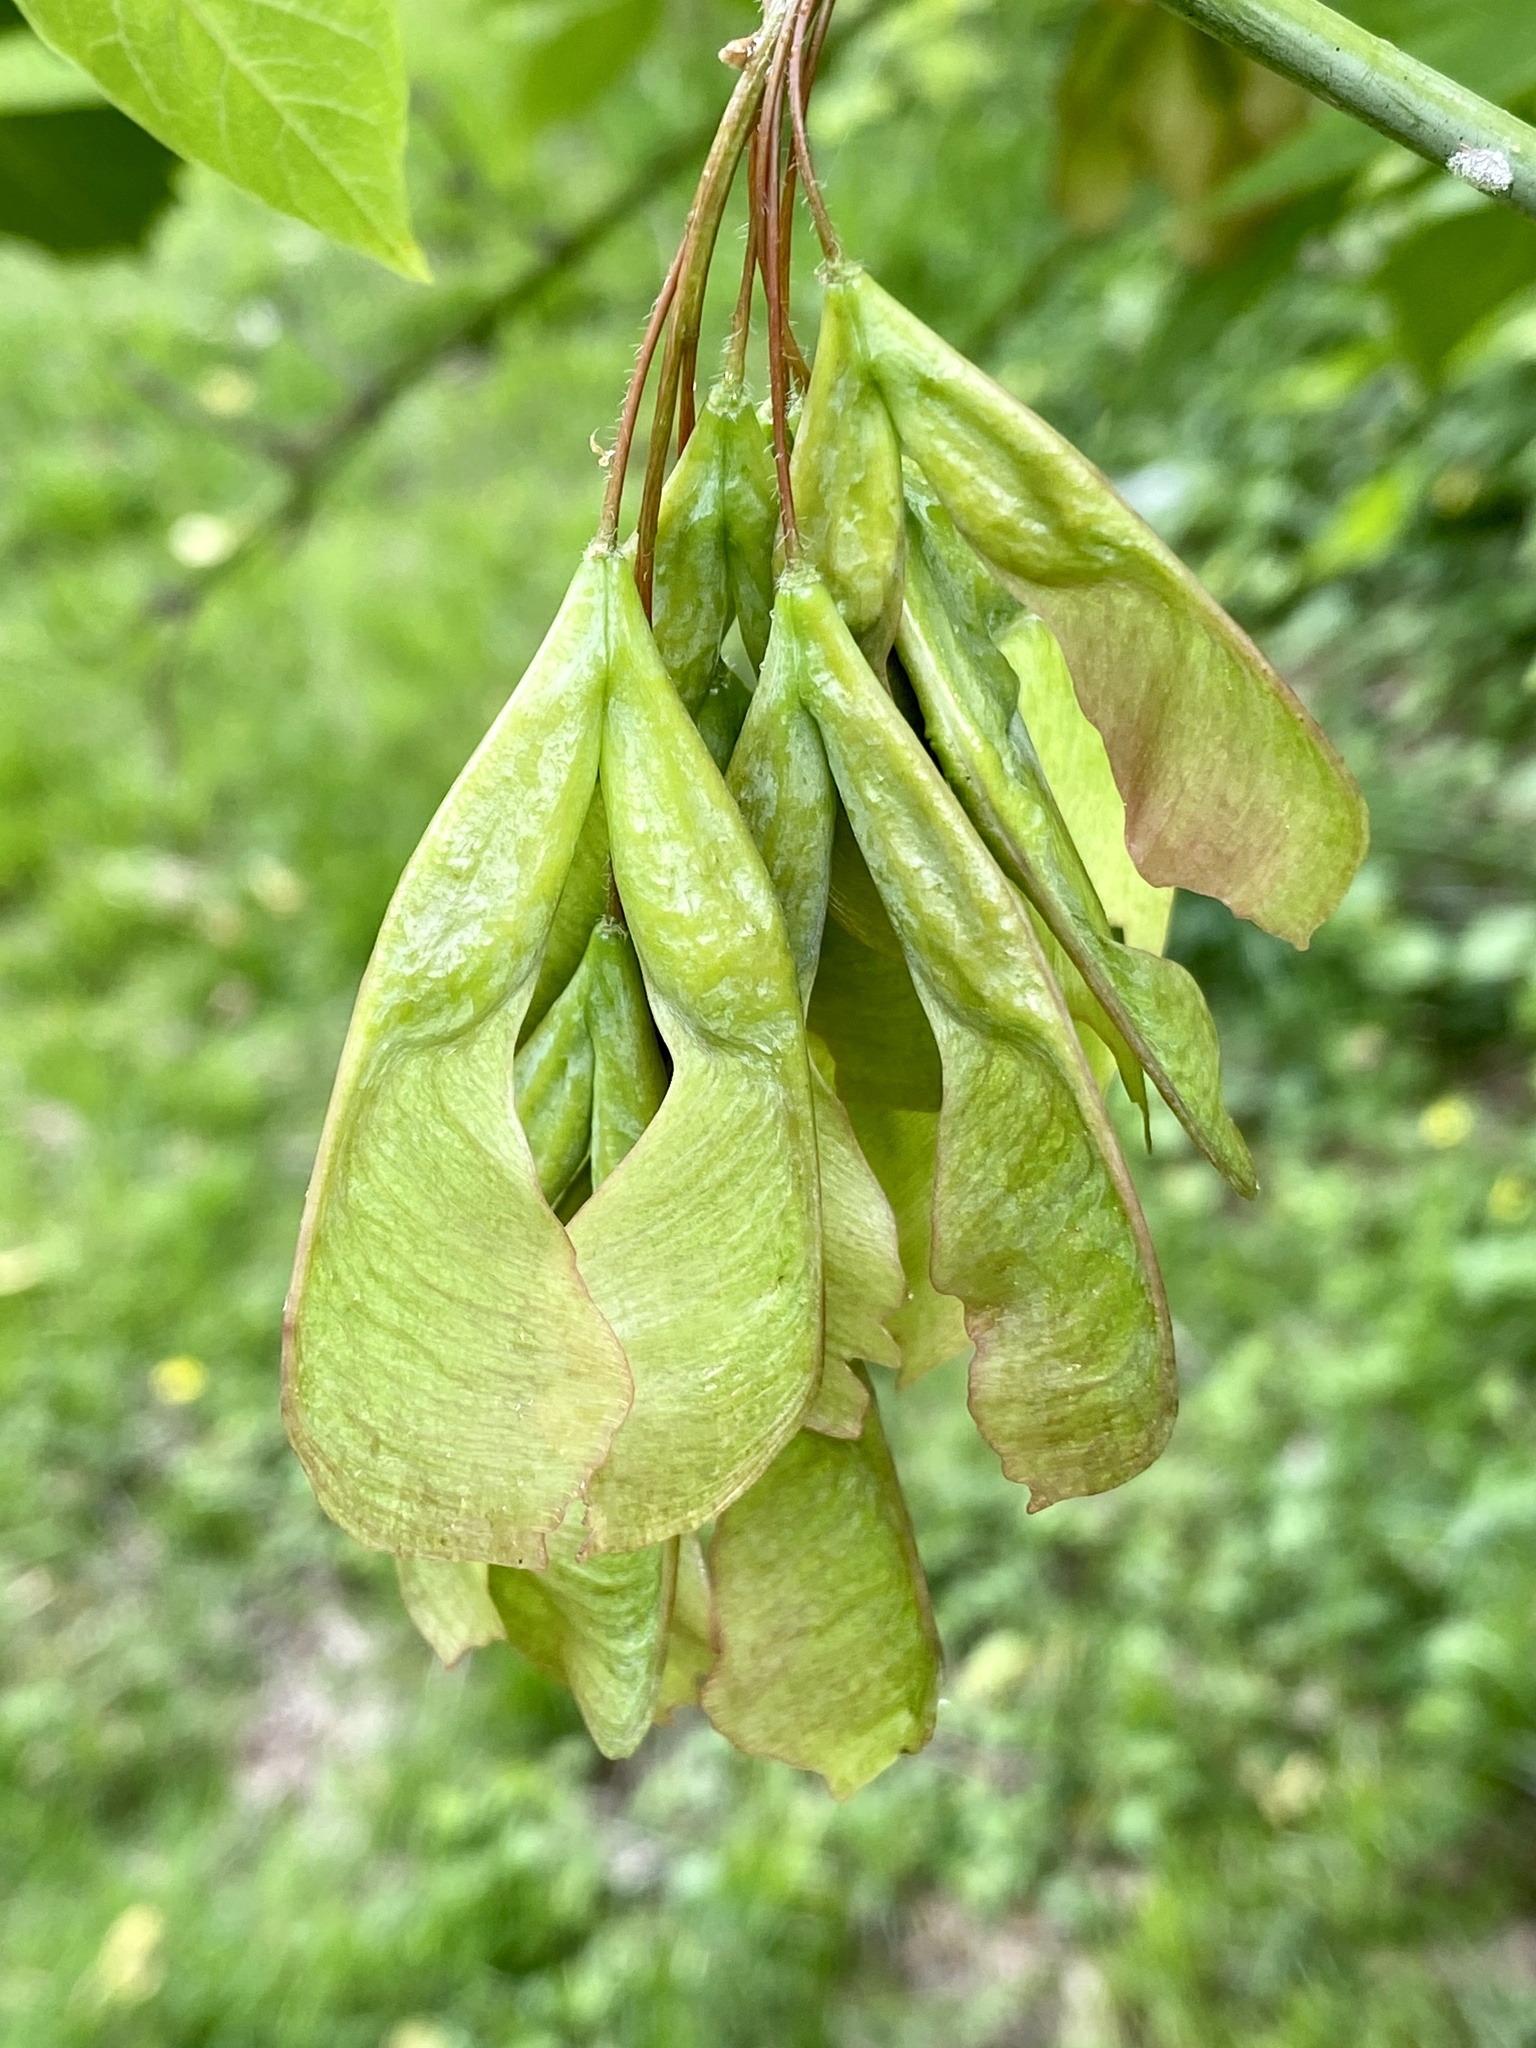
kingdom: Plantae
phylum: Tracheophyta
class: Magnoliopsida
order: Sapindales
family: Sapindaceae
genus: Acer
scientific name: Acer negundo
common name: Ashleaf maple
